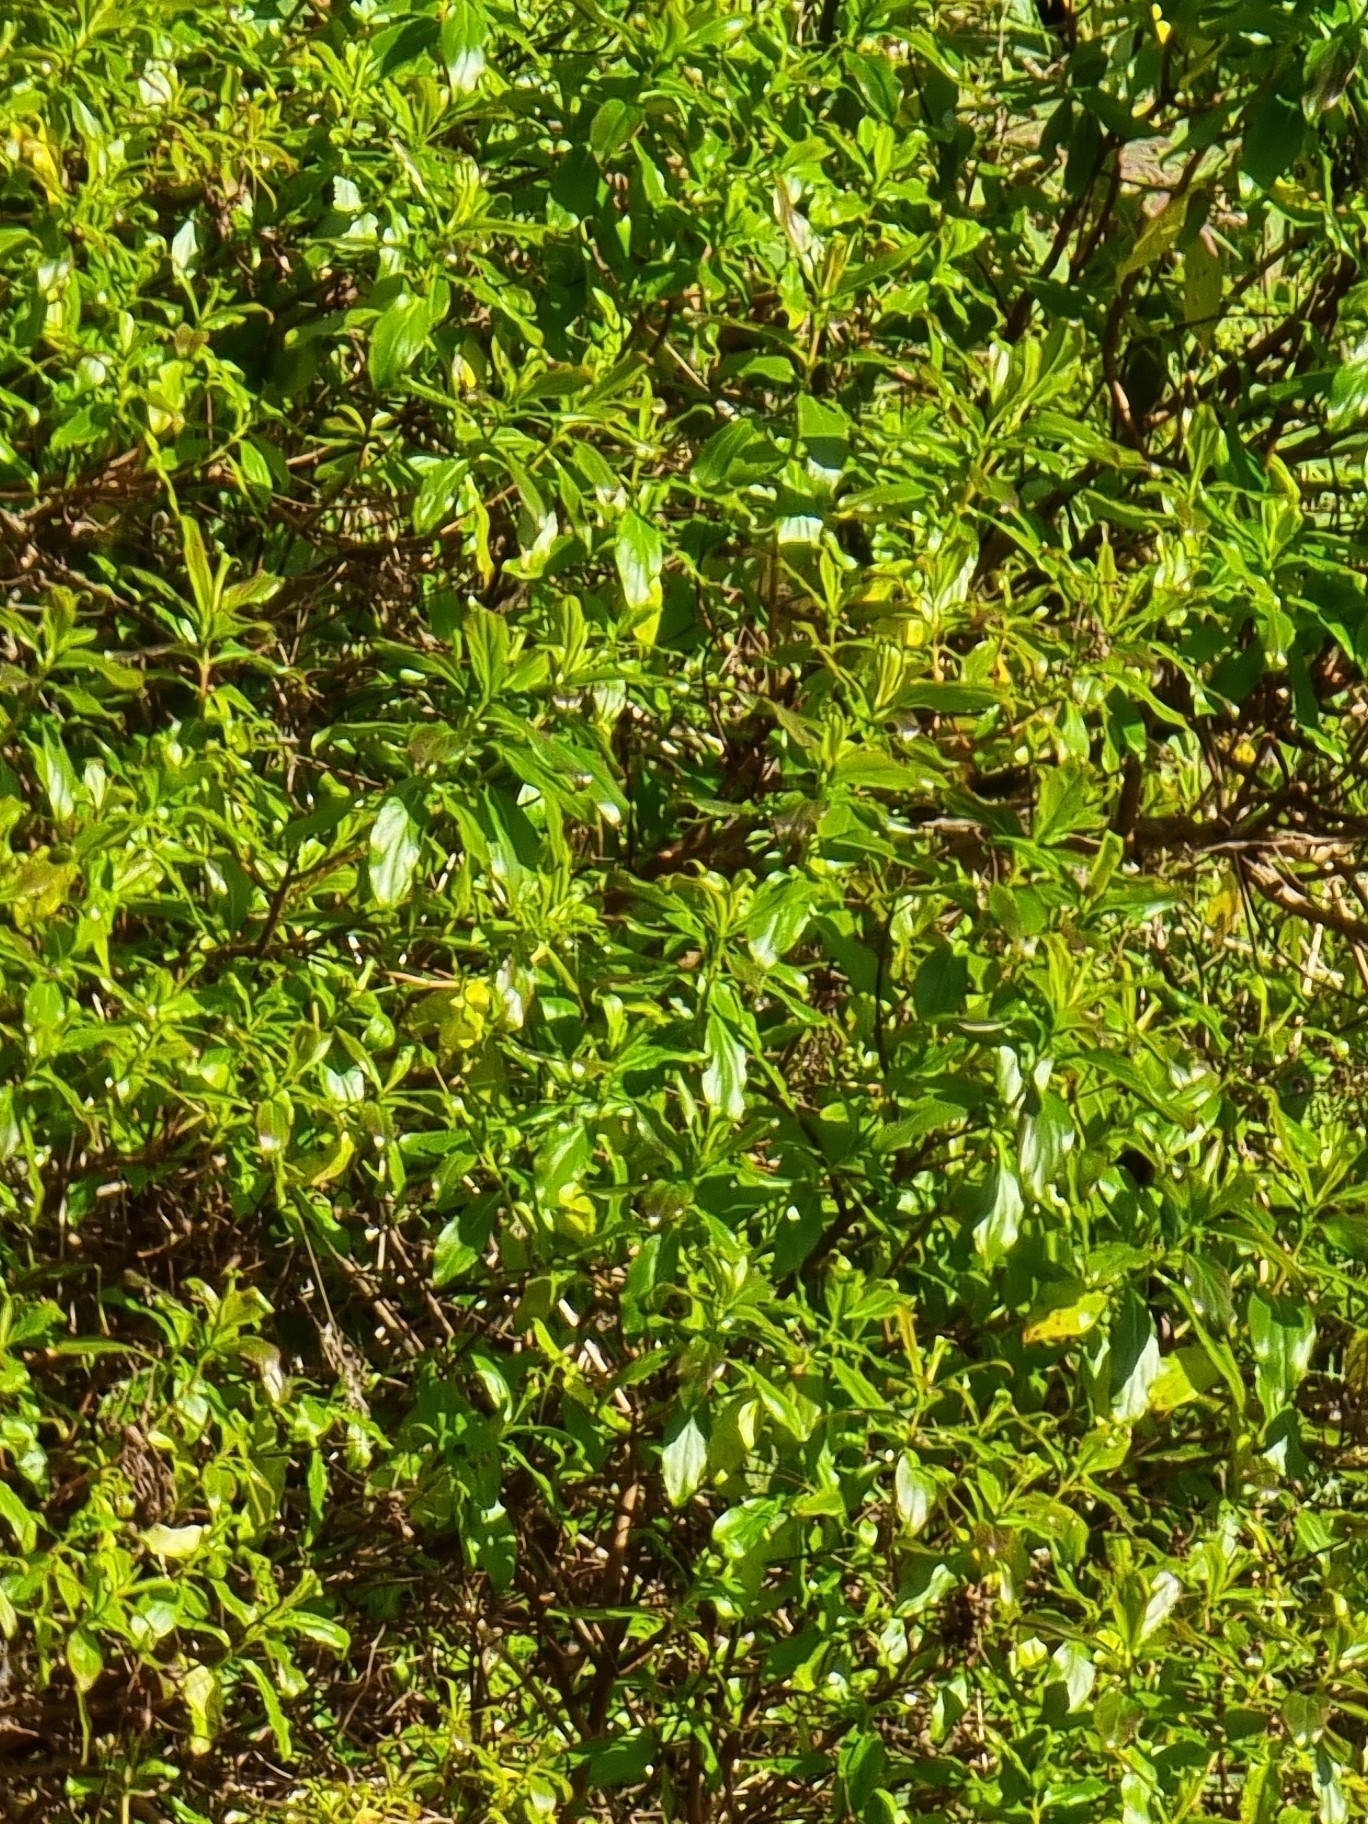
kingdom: Plantae
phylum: Tracheophyta
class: Magnoliopsida
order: Malpighiales
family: Hypericaceae
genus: Hypericum
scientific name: Hypericum glandulosum
